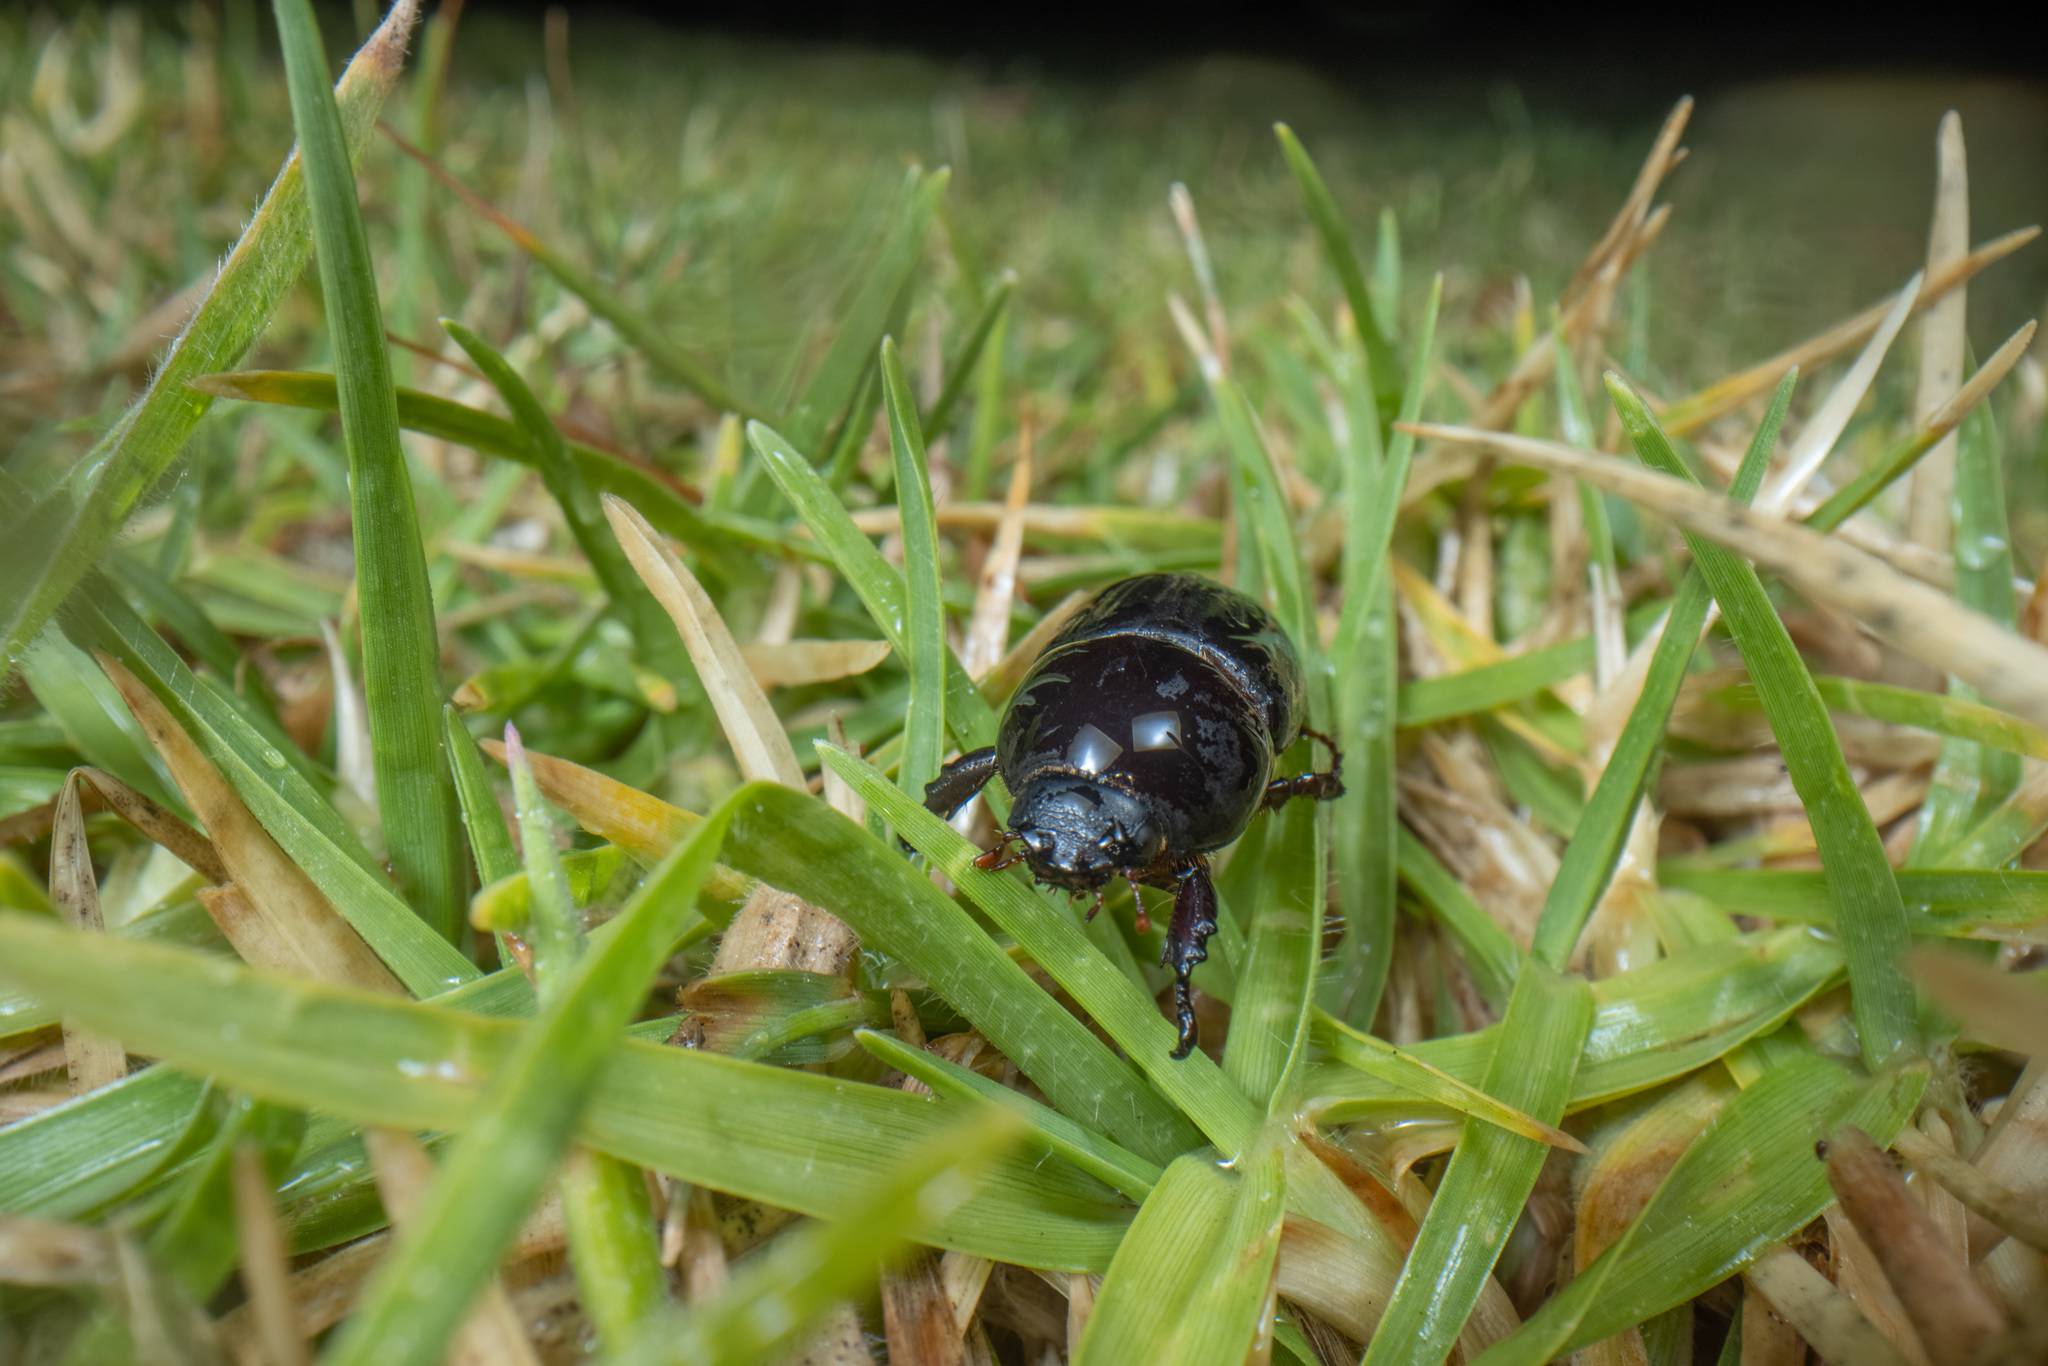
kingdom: Animalia
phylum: Arthropoda
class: Insecta
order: Coleoptera
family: Scarabaeidae
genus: Heteronychus
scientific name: Heteronychus arator
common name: African black beetle
